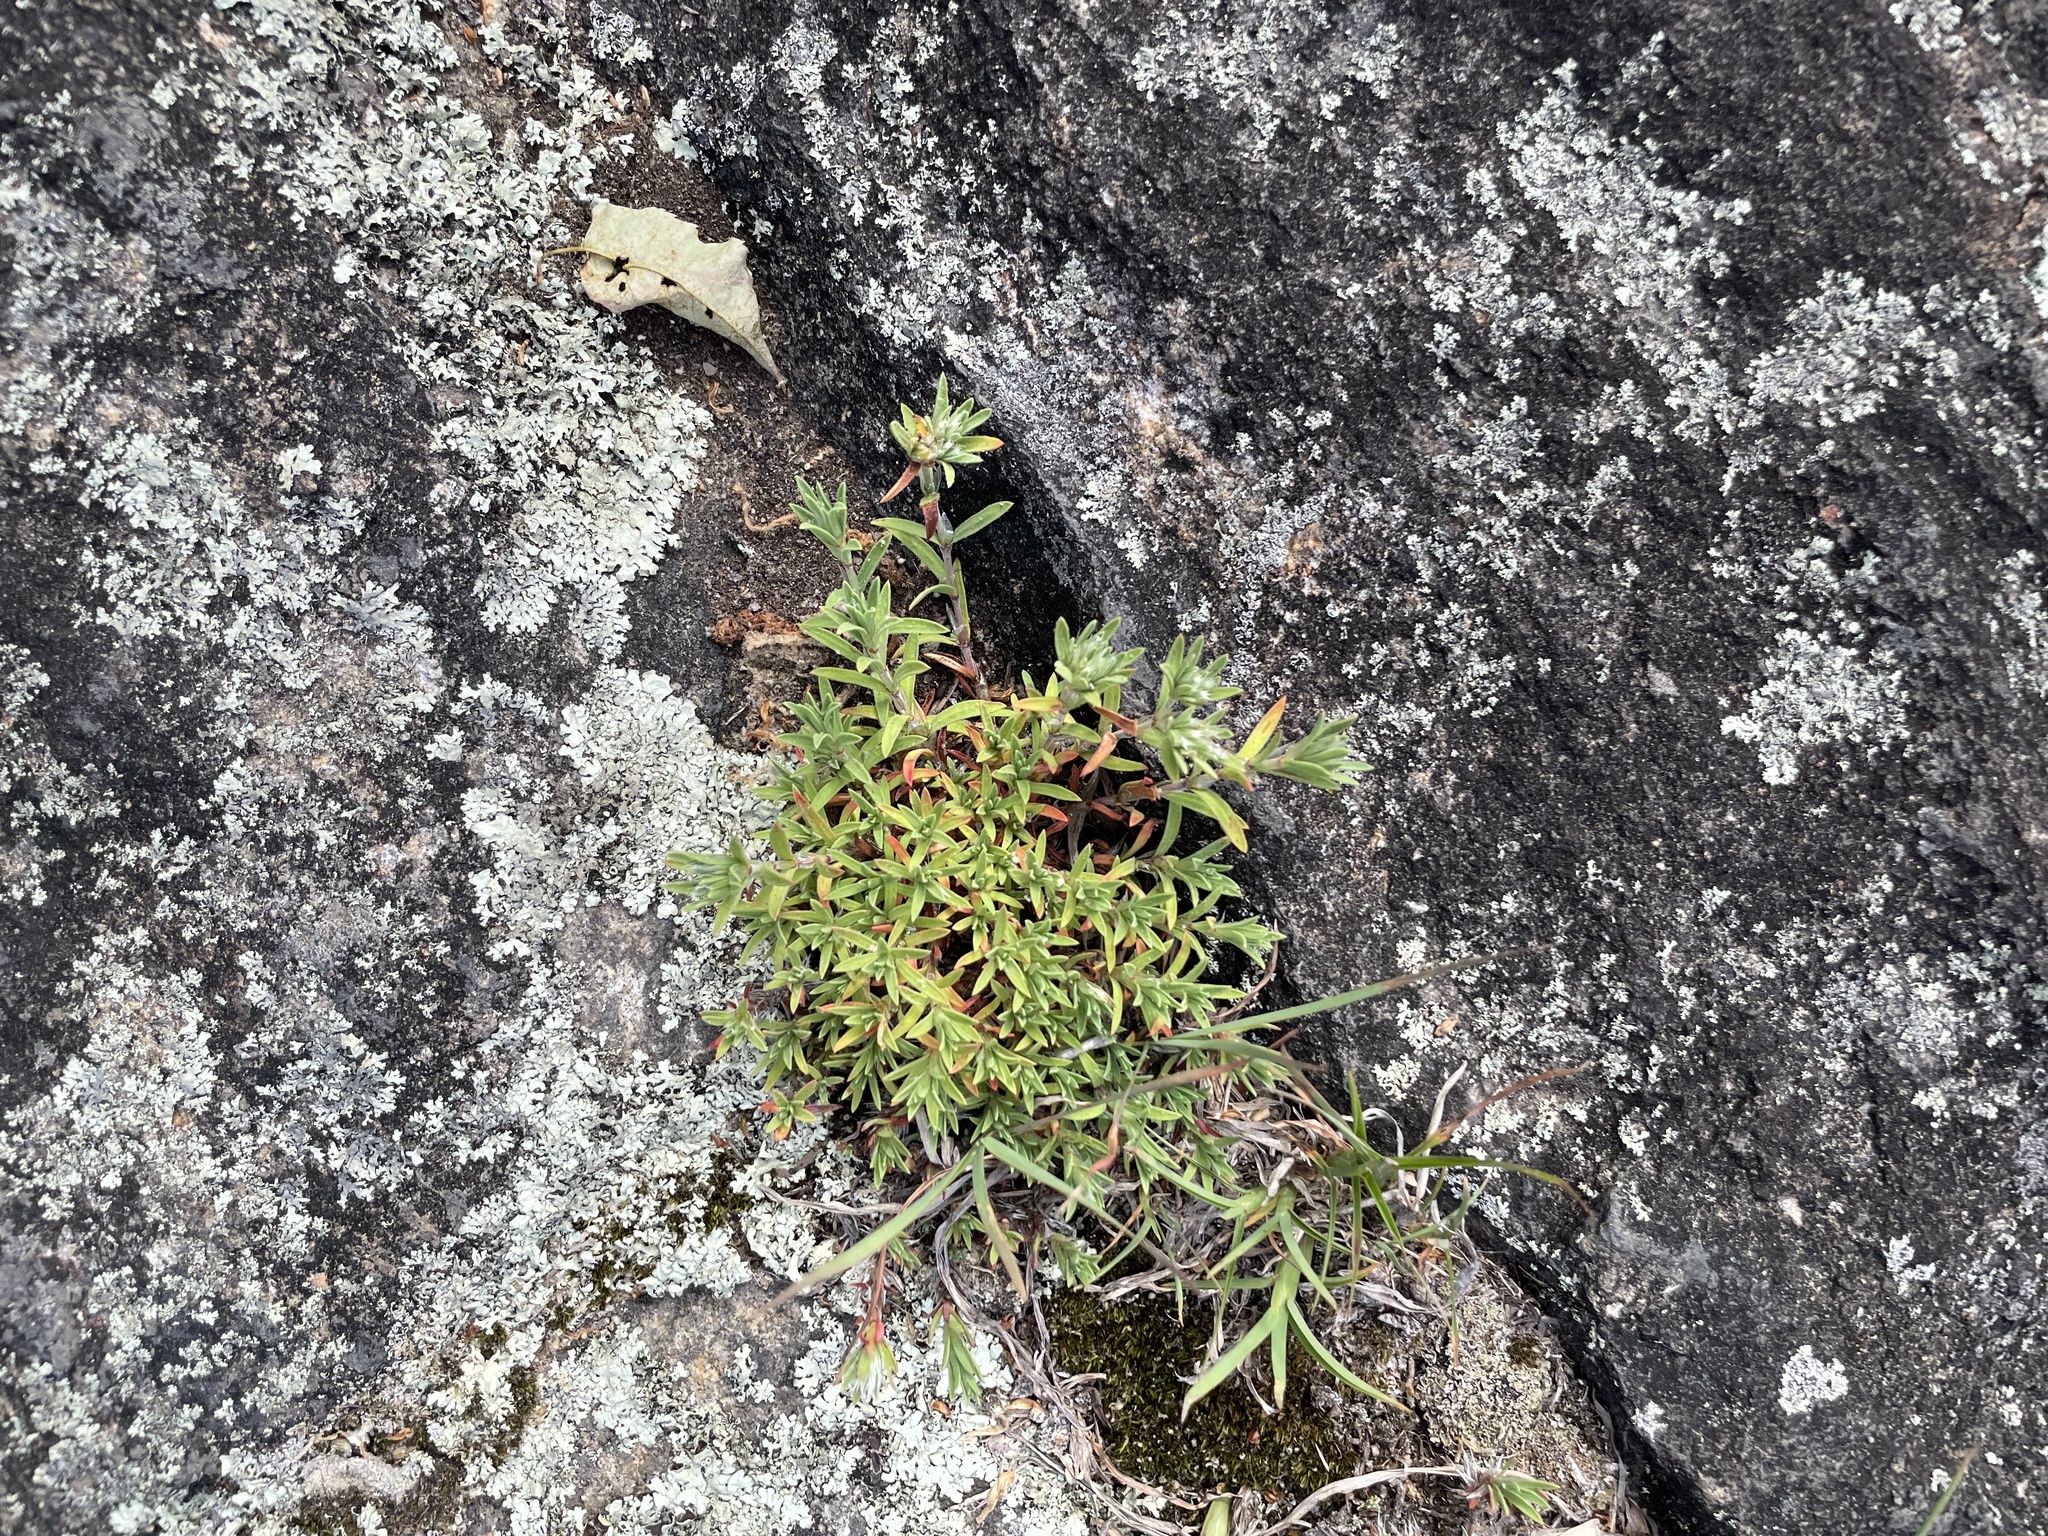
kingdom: Plantae
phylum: Tracheophyta
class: Magnoliopsida
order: Caryophyllales
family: Caryophyllaceae
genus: Paronychia
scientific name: Paronychia argyrocoma
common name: Silverling
